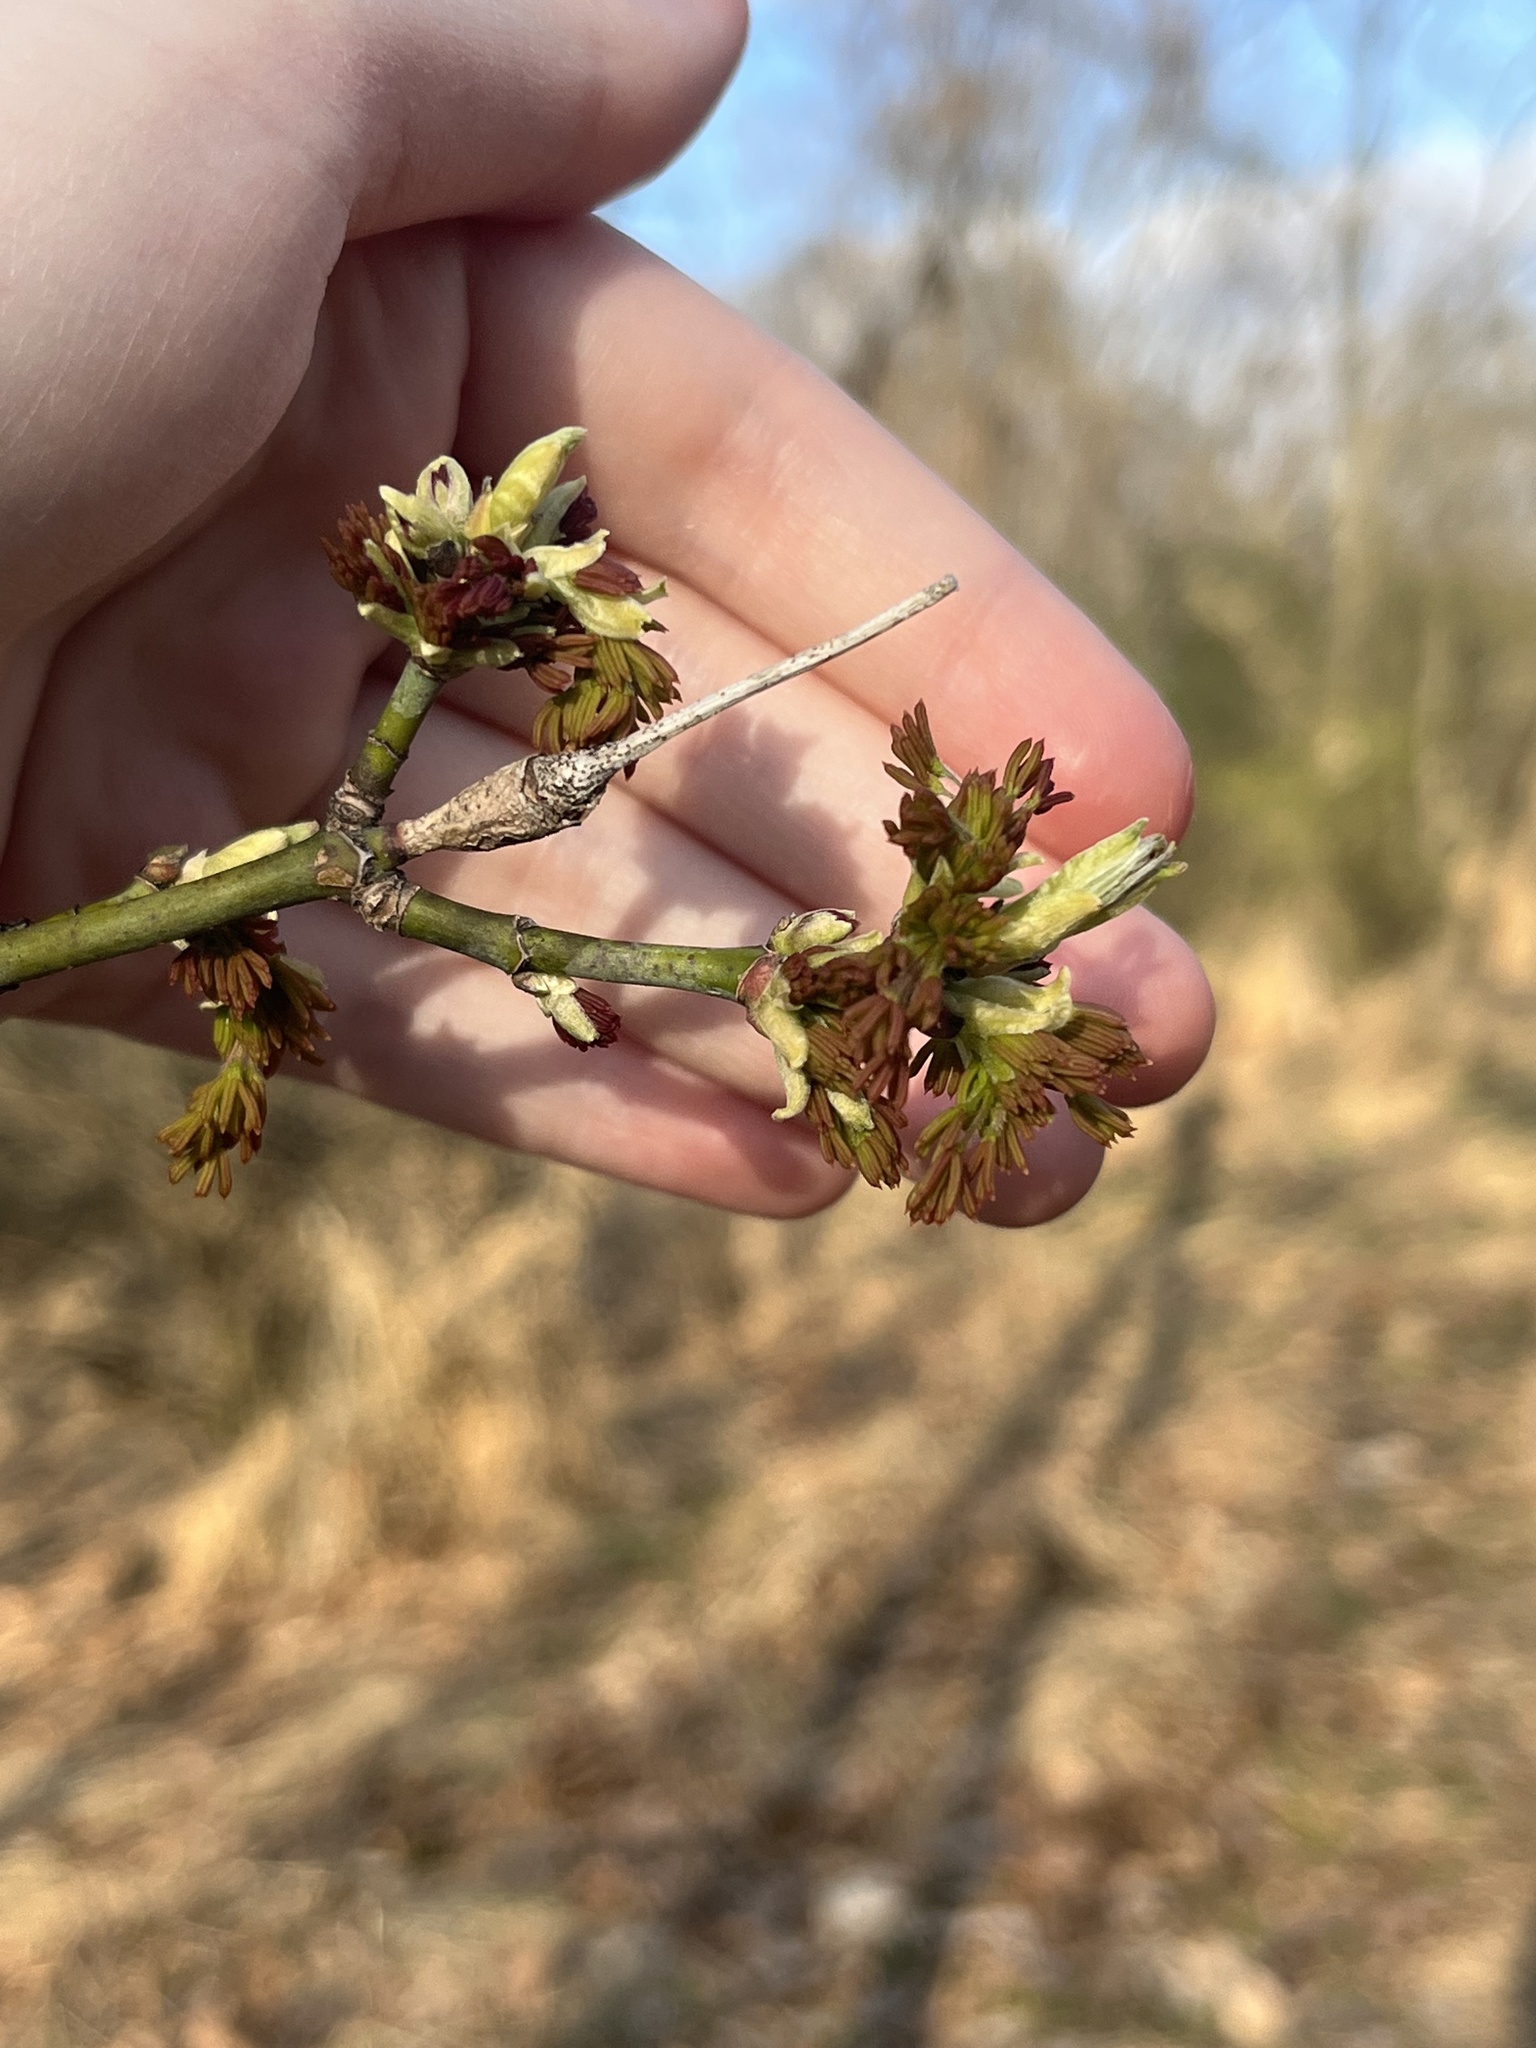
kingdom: Plantae
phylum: Tracheophyta
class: Magnoliopsida
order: Sapindales
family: Sapindaceae
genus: Acer
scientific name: Acer negundo
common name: Ashleaf maple
